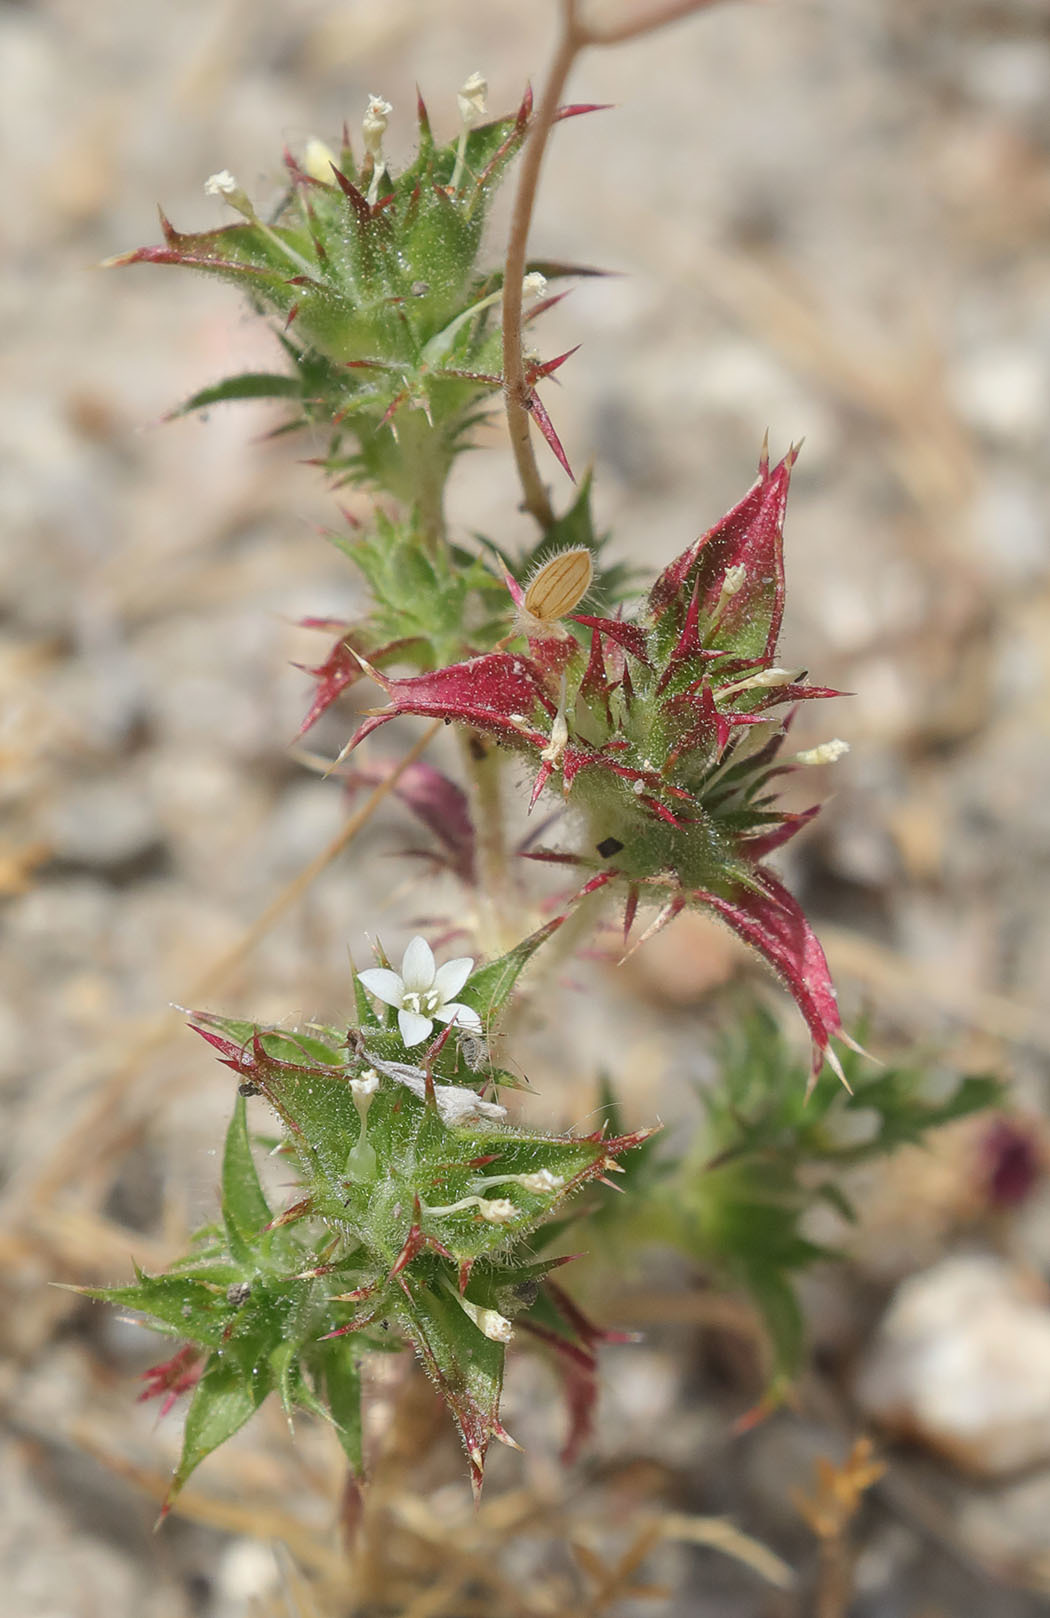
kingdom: Plantae
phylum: Tracheophyta
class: Magnoliopsida
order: Ericales
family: Polemoniaceae
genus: Navarretia
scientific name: Navarretia atractyloides
